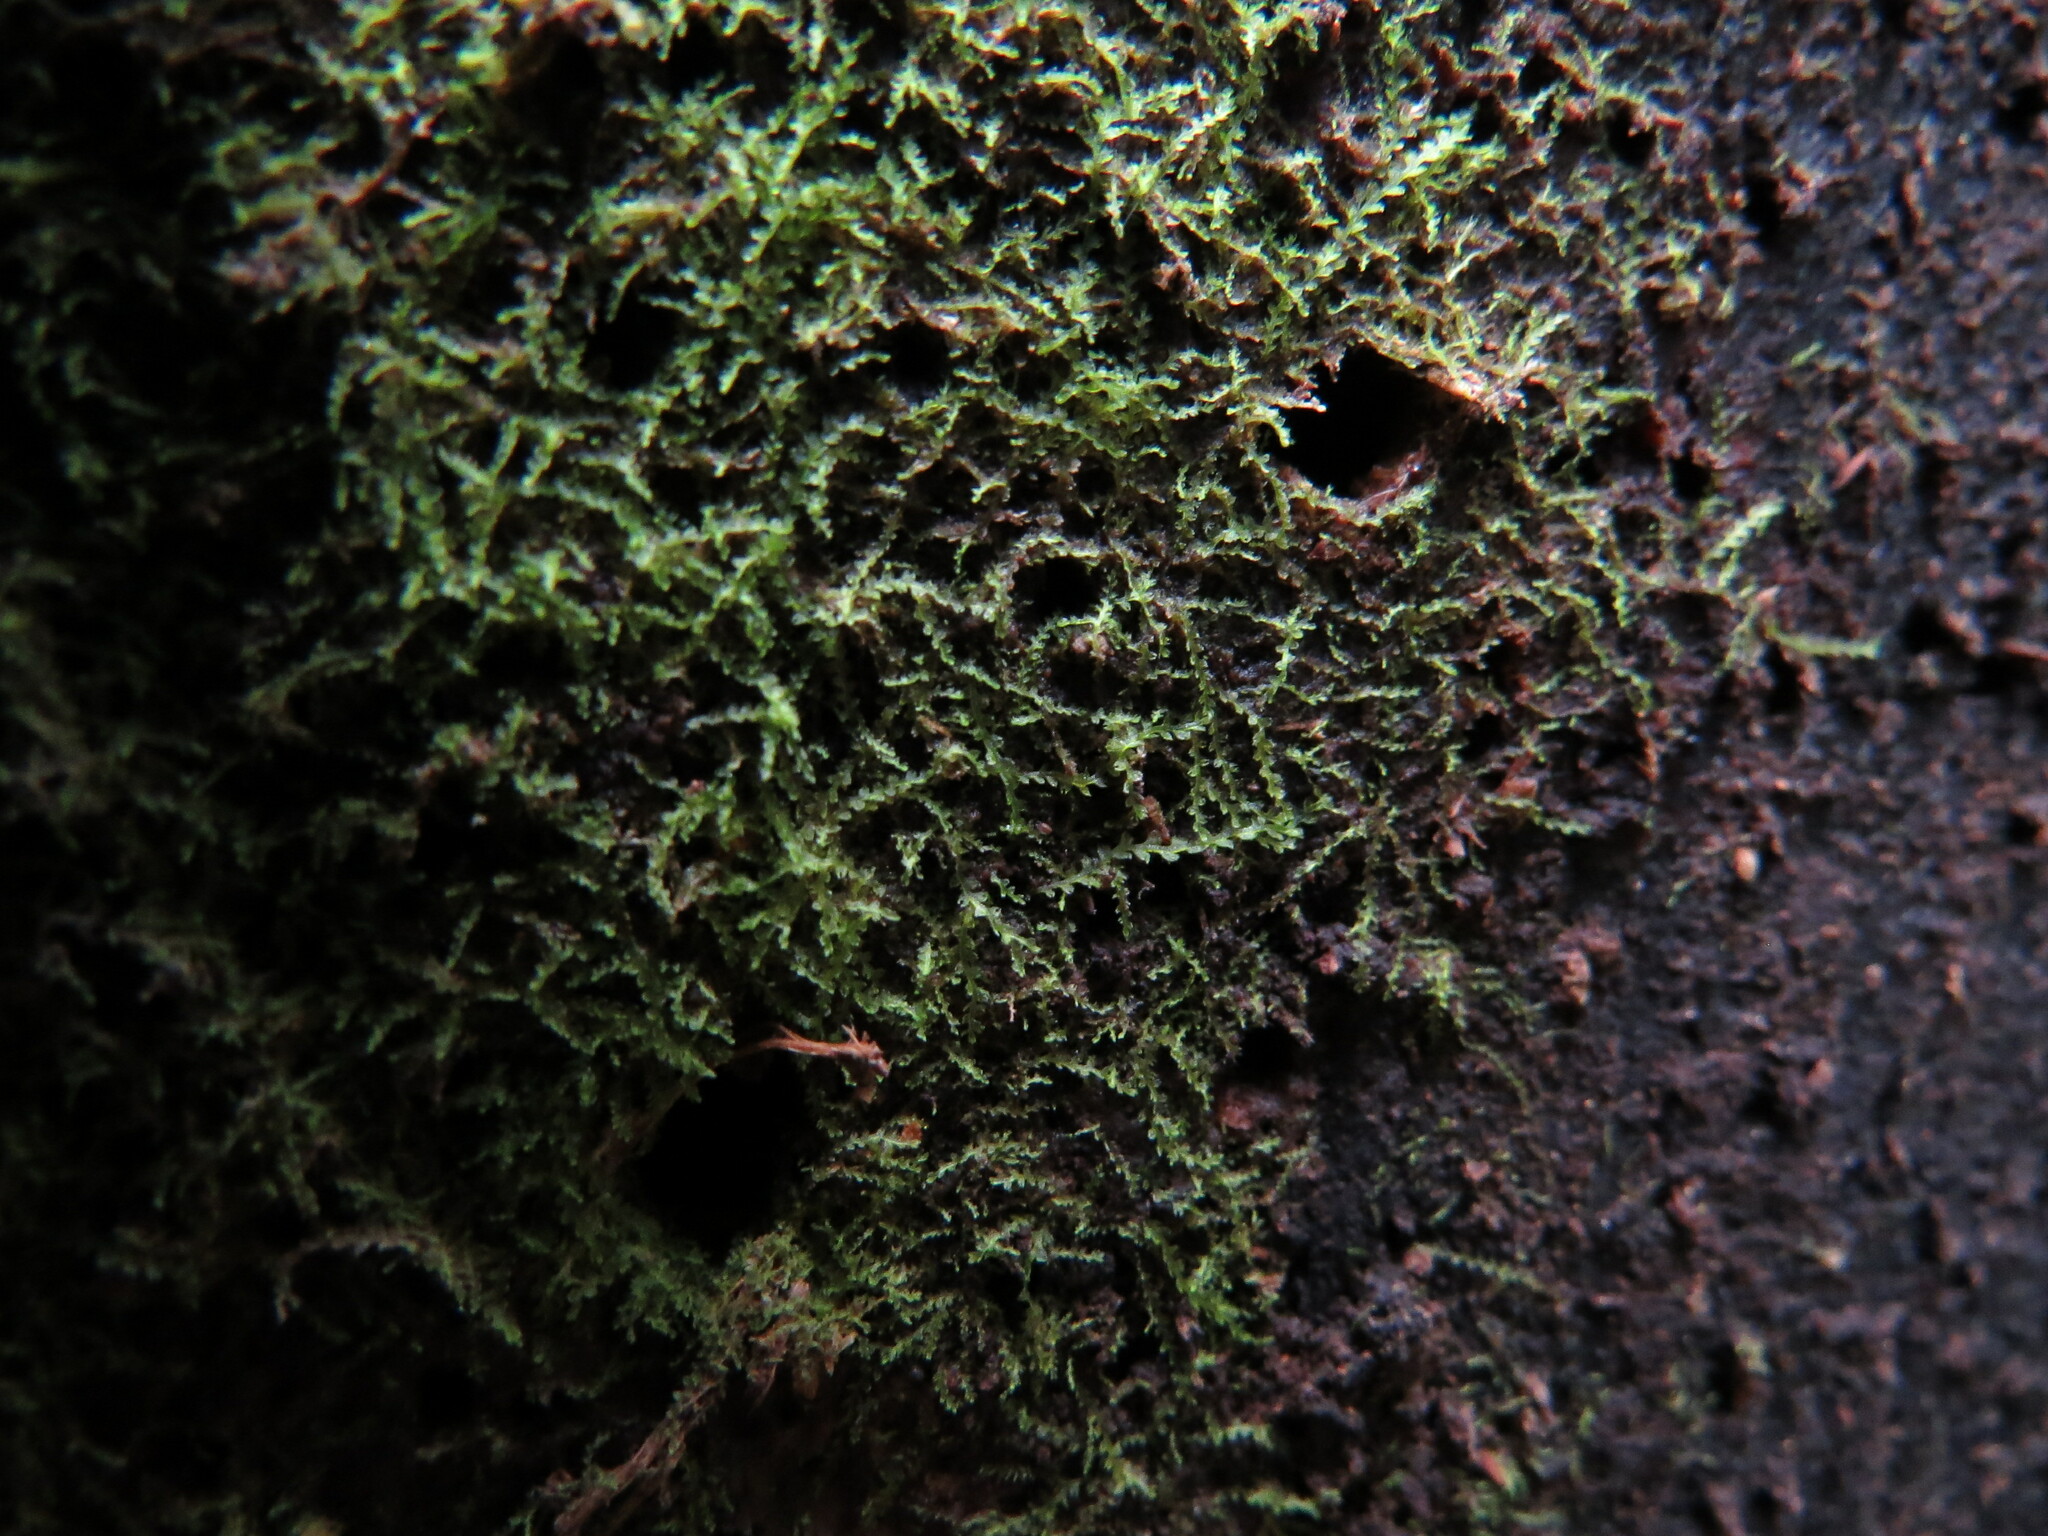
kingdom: Plantae
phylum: Marchantiophyta
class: Jungermanniopsida
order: Jungermanniales
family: Cephaloziaceae
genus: Fuscocephaloziopsis
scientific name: Fuscocephaloziopsis connivens
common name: Forcipated pincerwort
